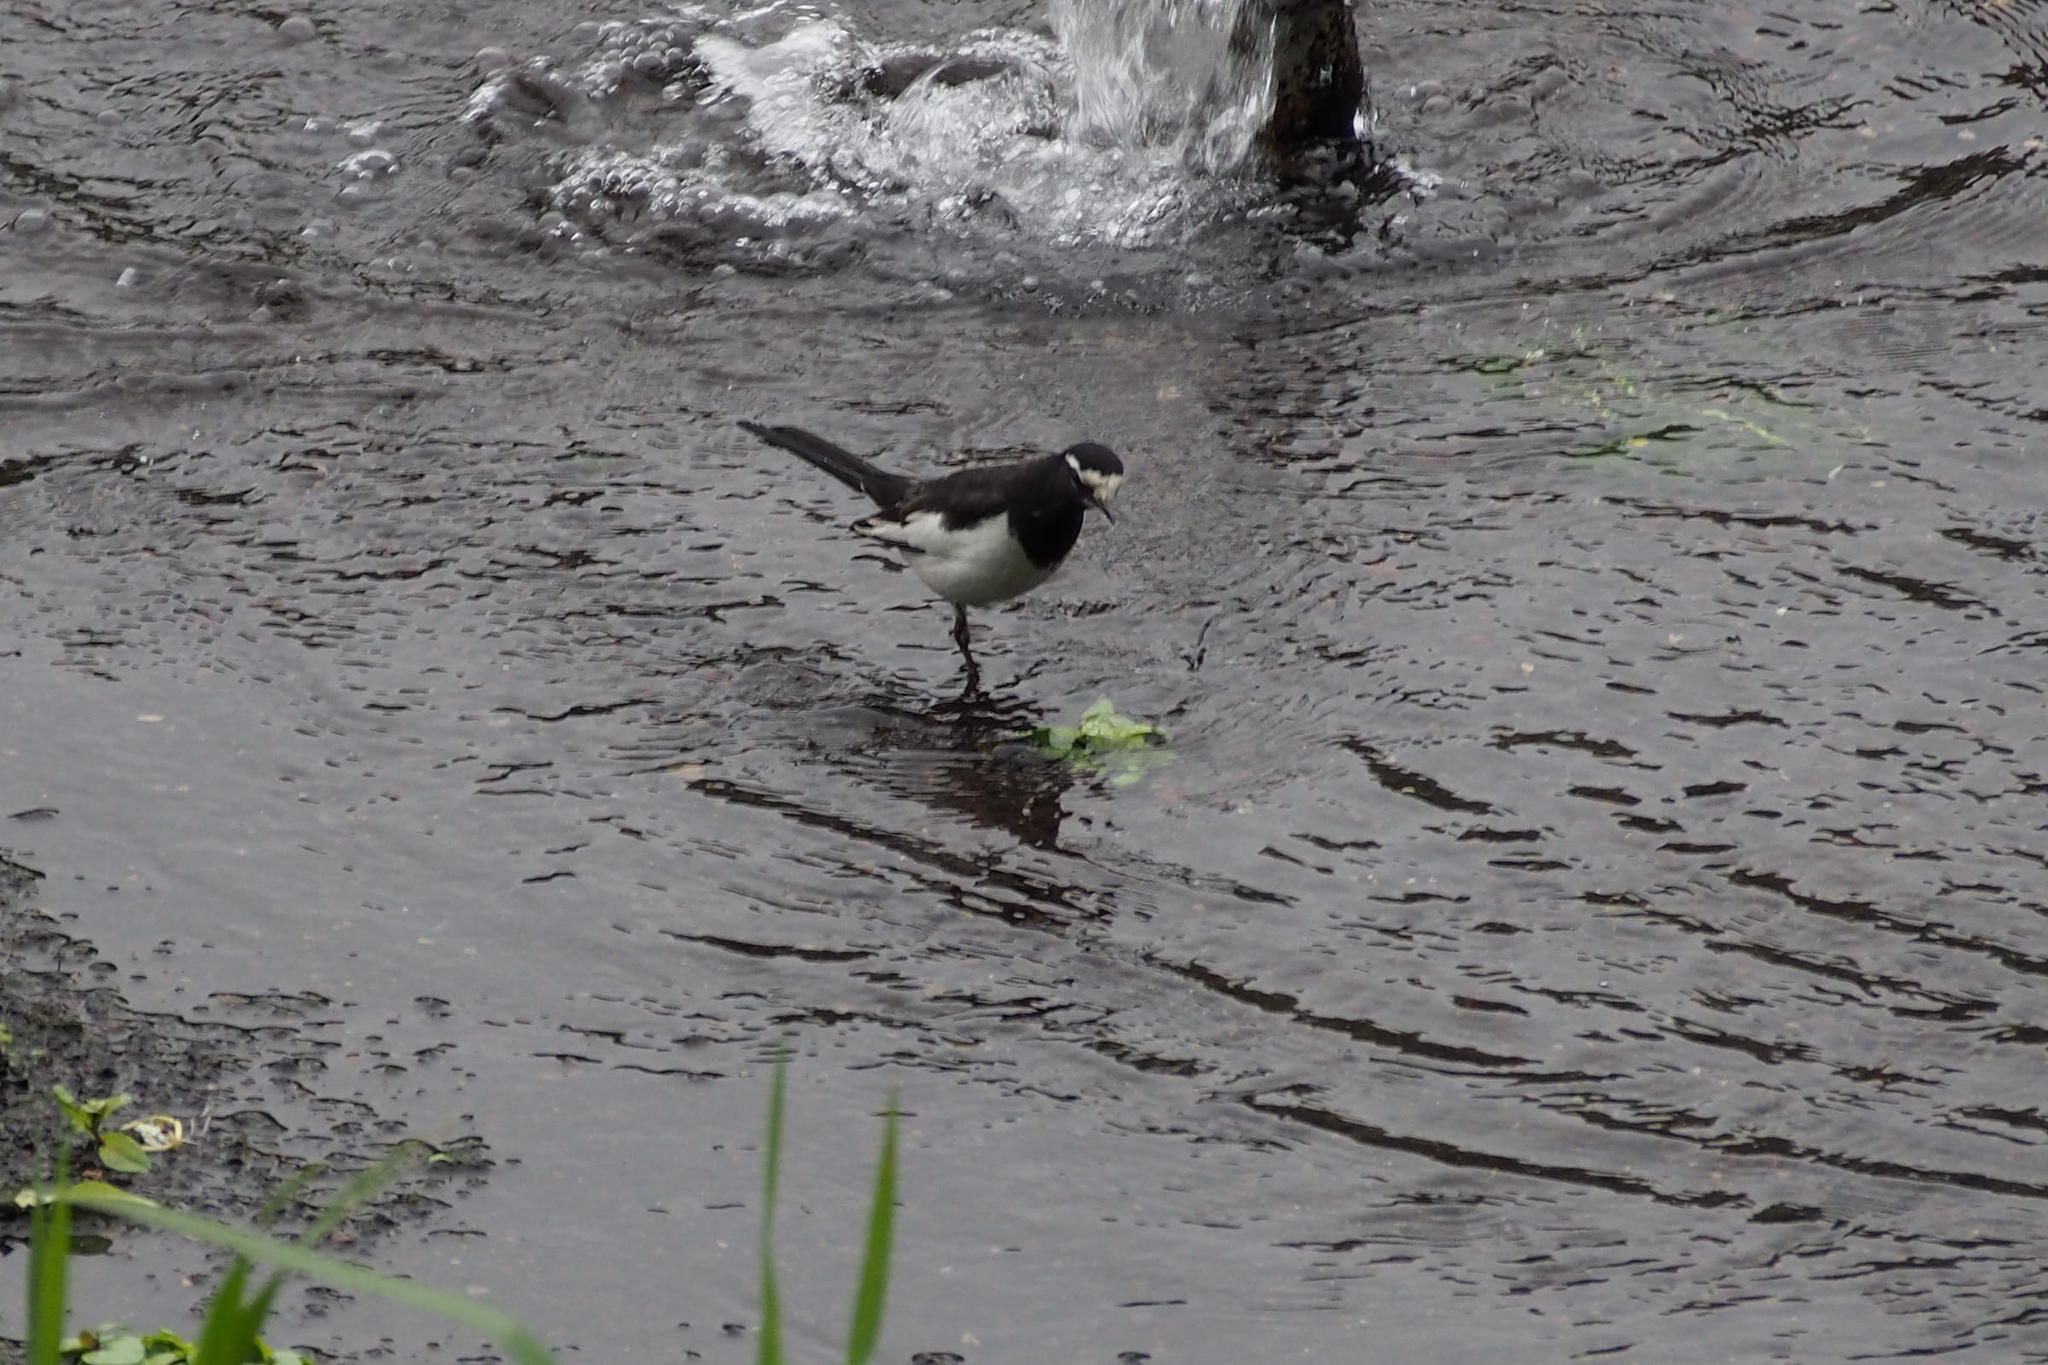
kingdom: Animalia
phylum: Chordata
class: Aves
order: Passeriformes
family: Motacillidae
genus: Motacilla
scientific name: Motacilla grandis
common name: Japanese wagtail
